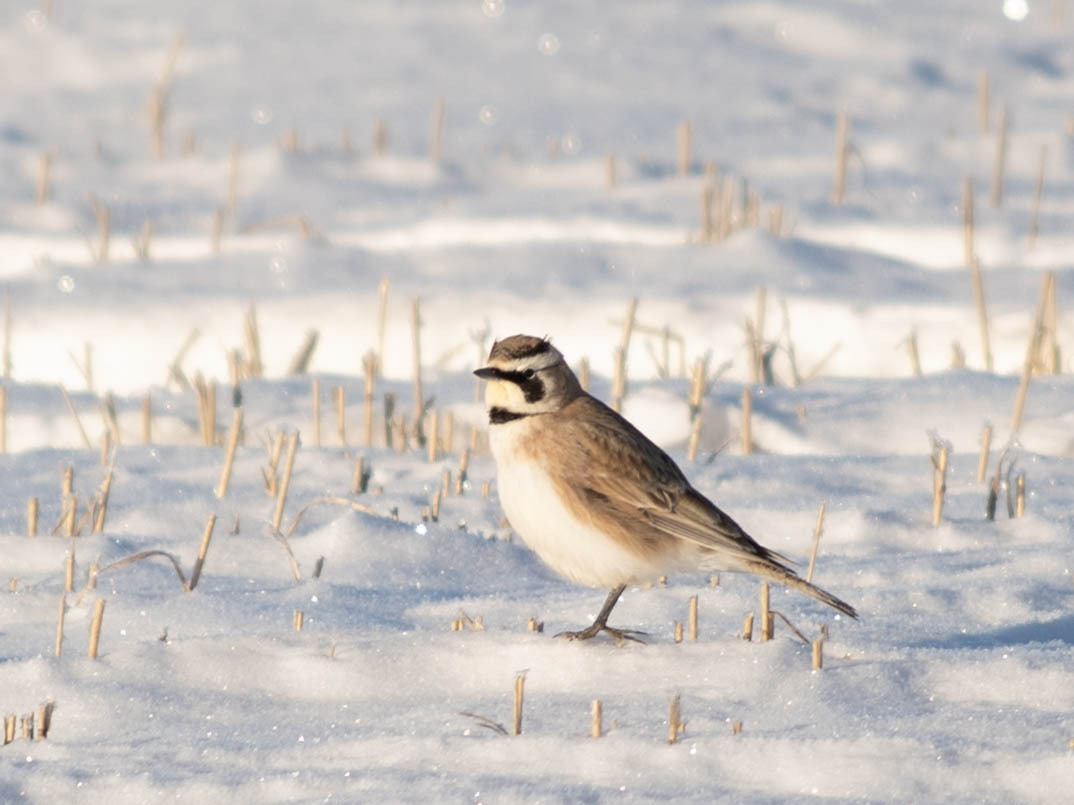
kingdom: Animalia
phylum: Chordata
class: Aves
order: Passeriformes
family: Alaudidae
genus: Eremophila
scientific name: Eremophila alpestris
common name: Horned lark
